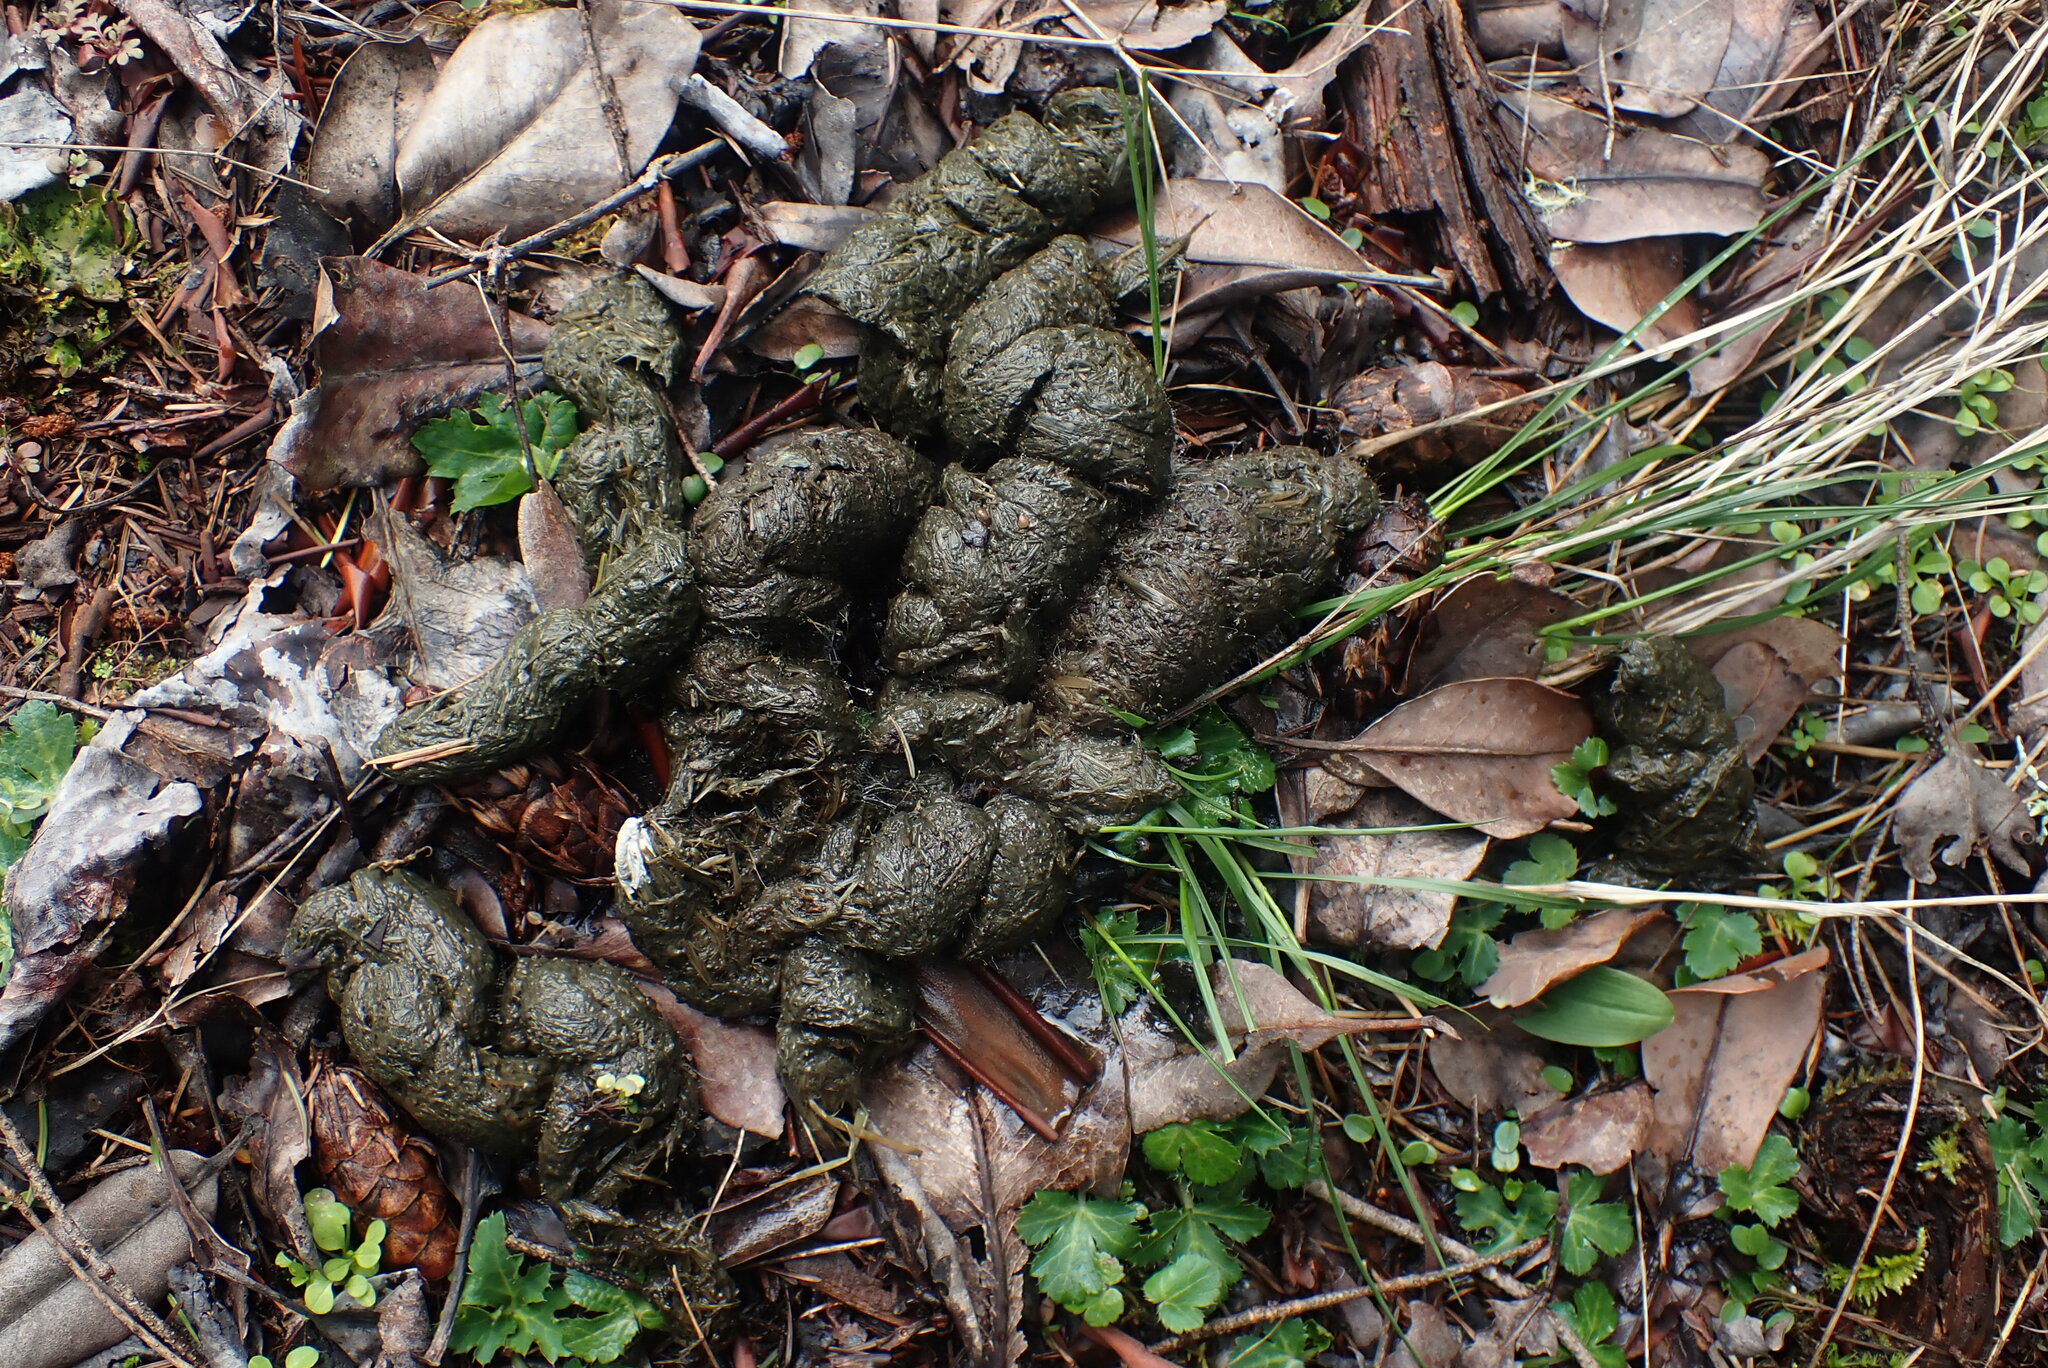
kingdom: Animalia
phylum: Chordata
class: Mammalia
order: Carnivora
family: Ursidae
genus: Ursus
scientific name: Ursus americanus
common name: American black bear
